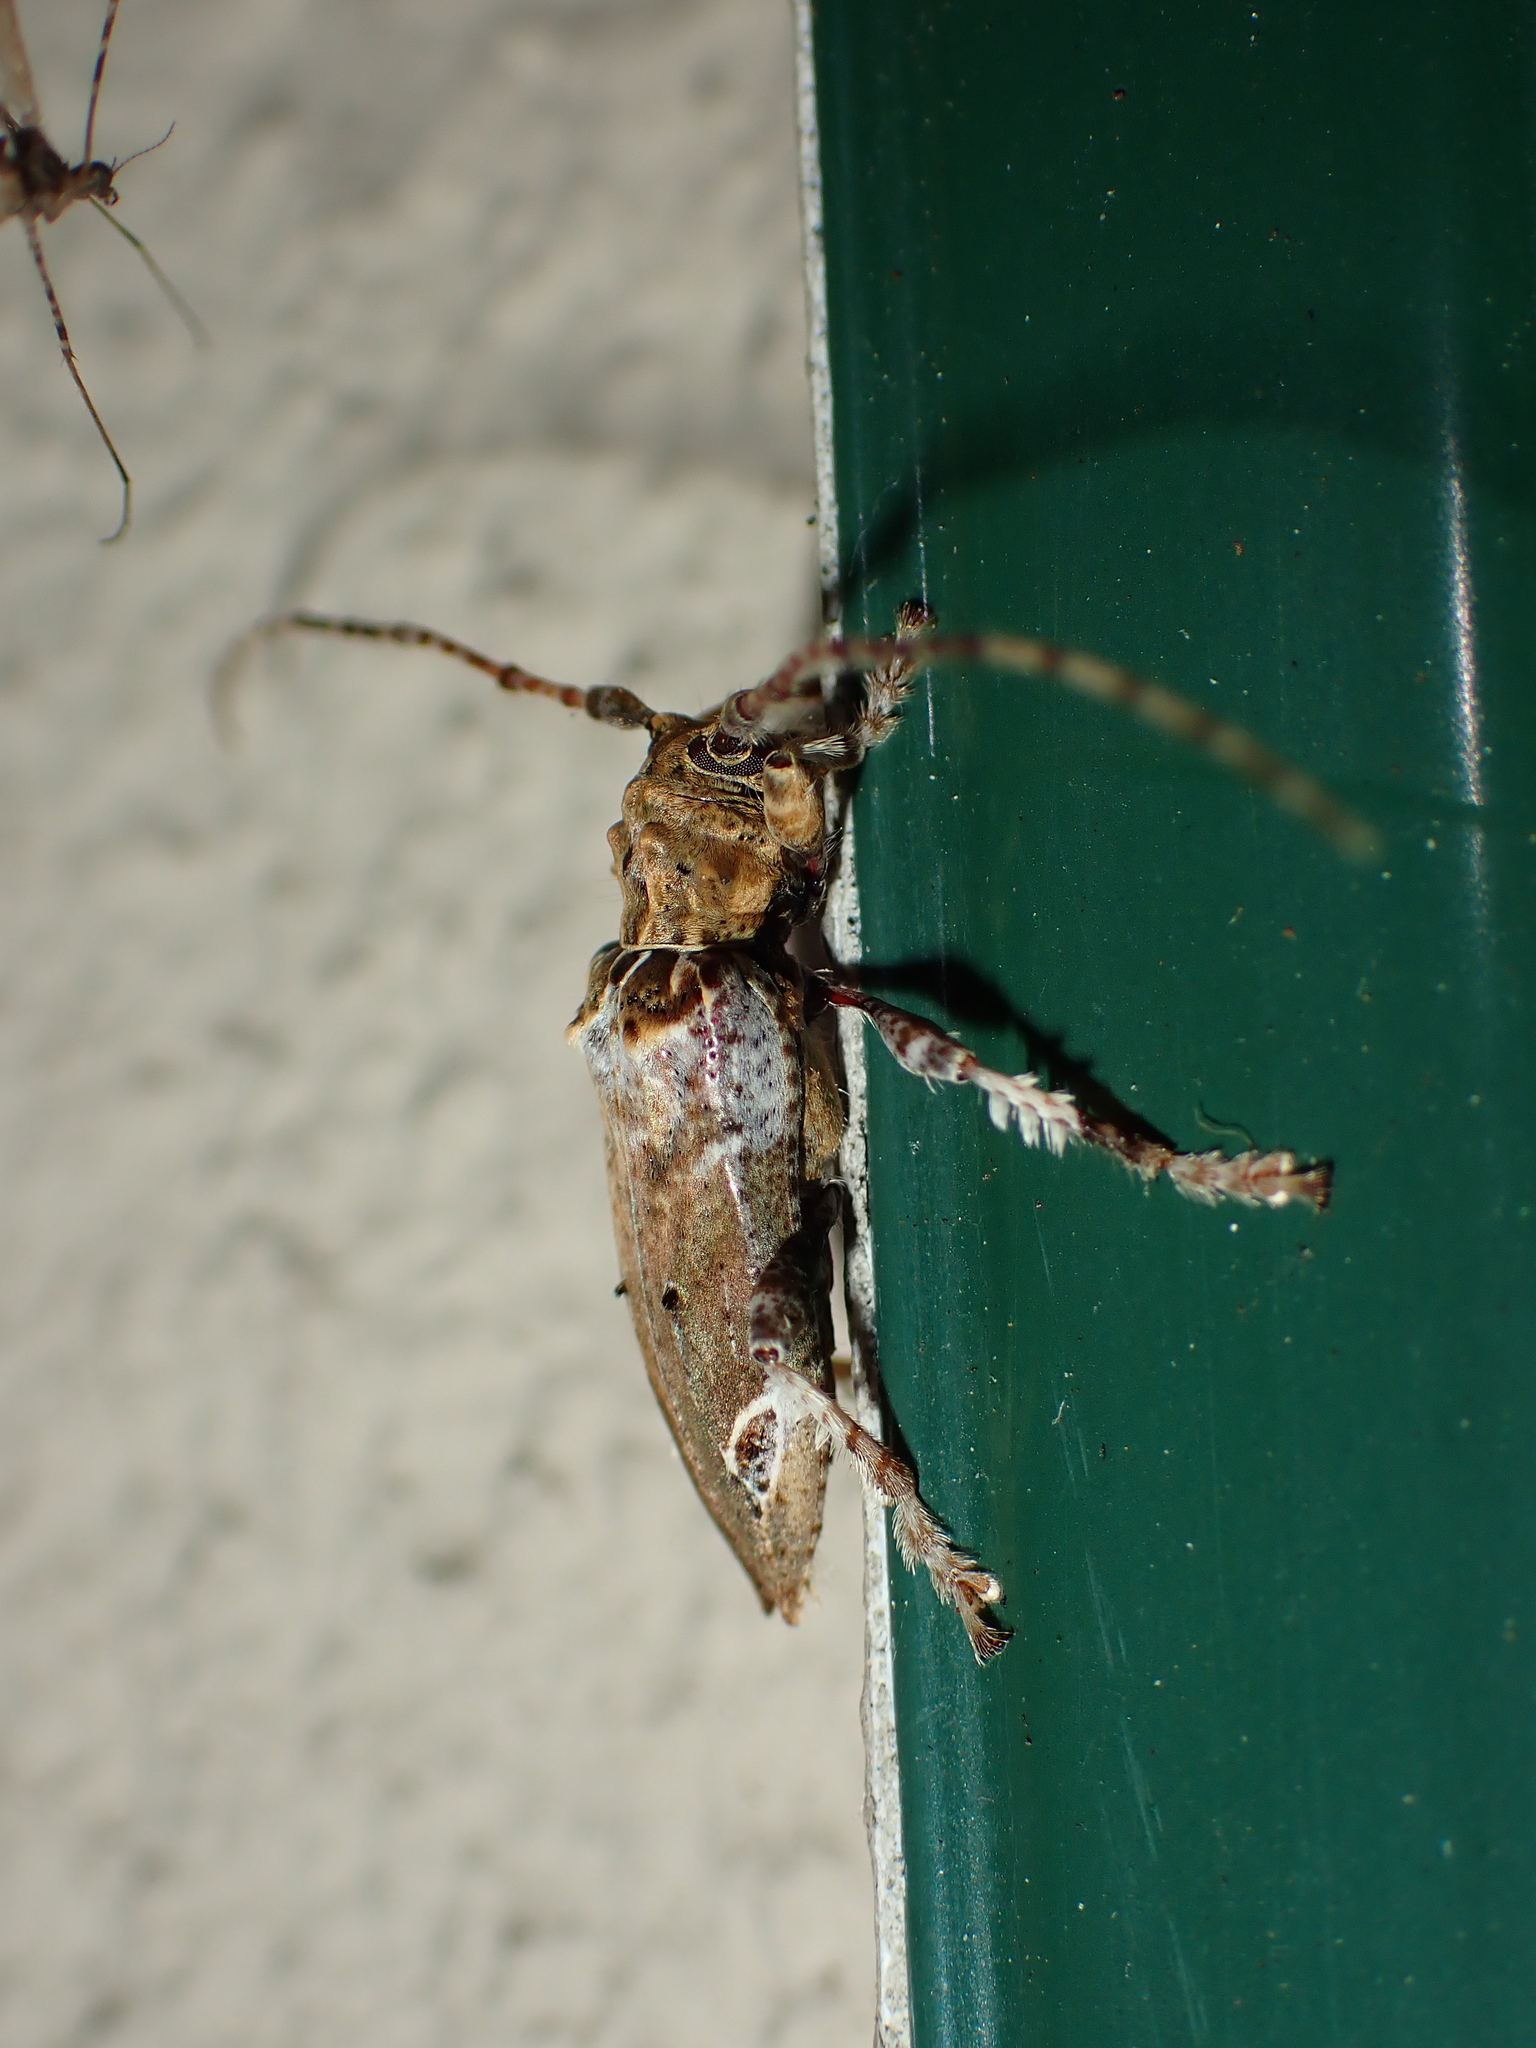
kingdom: Animalia
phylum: Arthropoda
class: Insecta
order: Coleoptera
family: Cerambycidae
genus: Tetrorea
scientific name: Tetrorea cilipes
